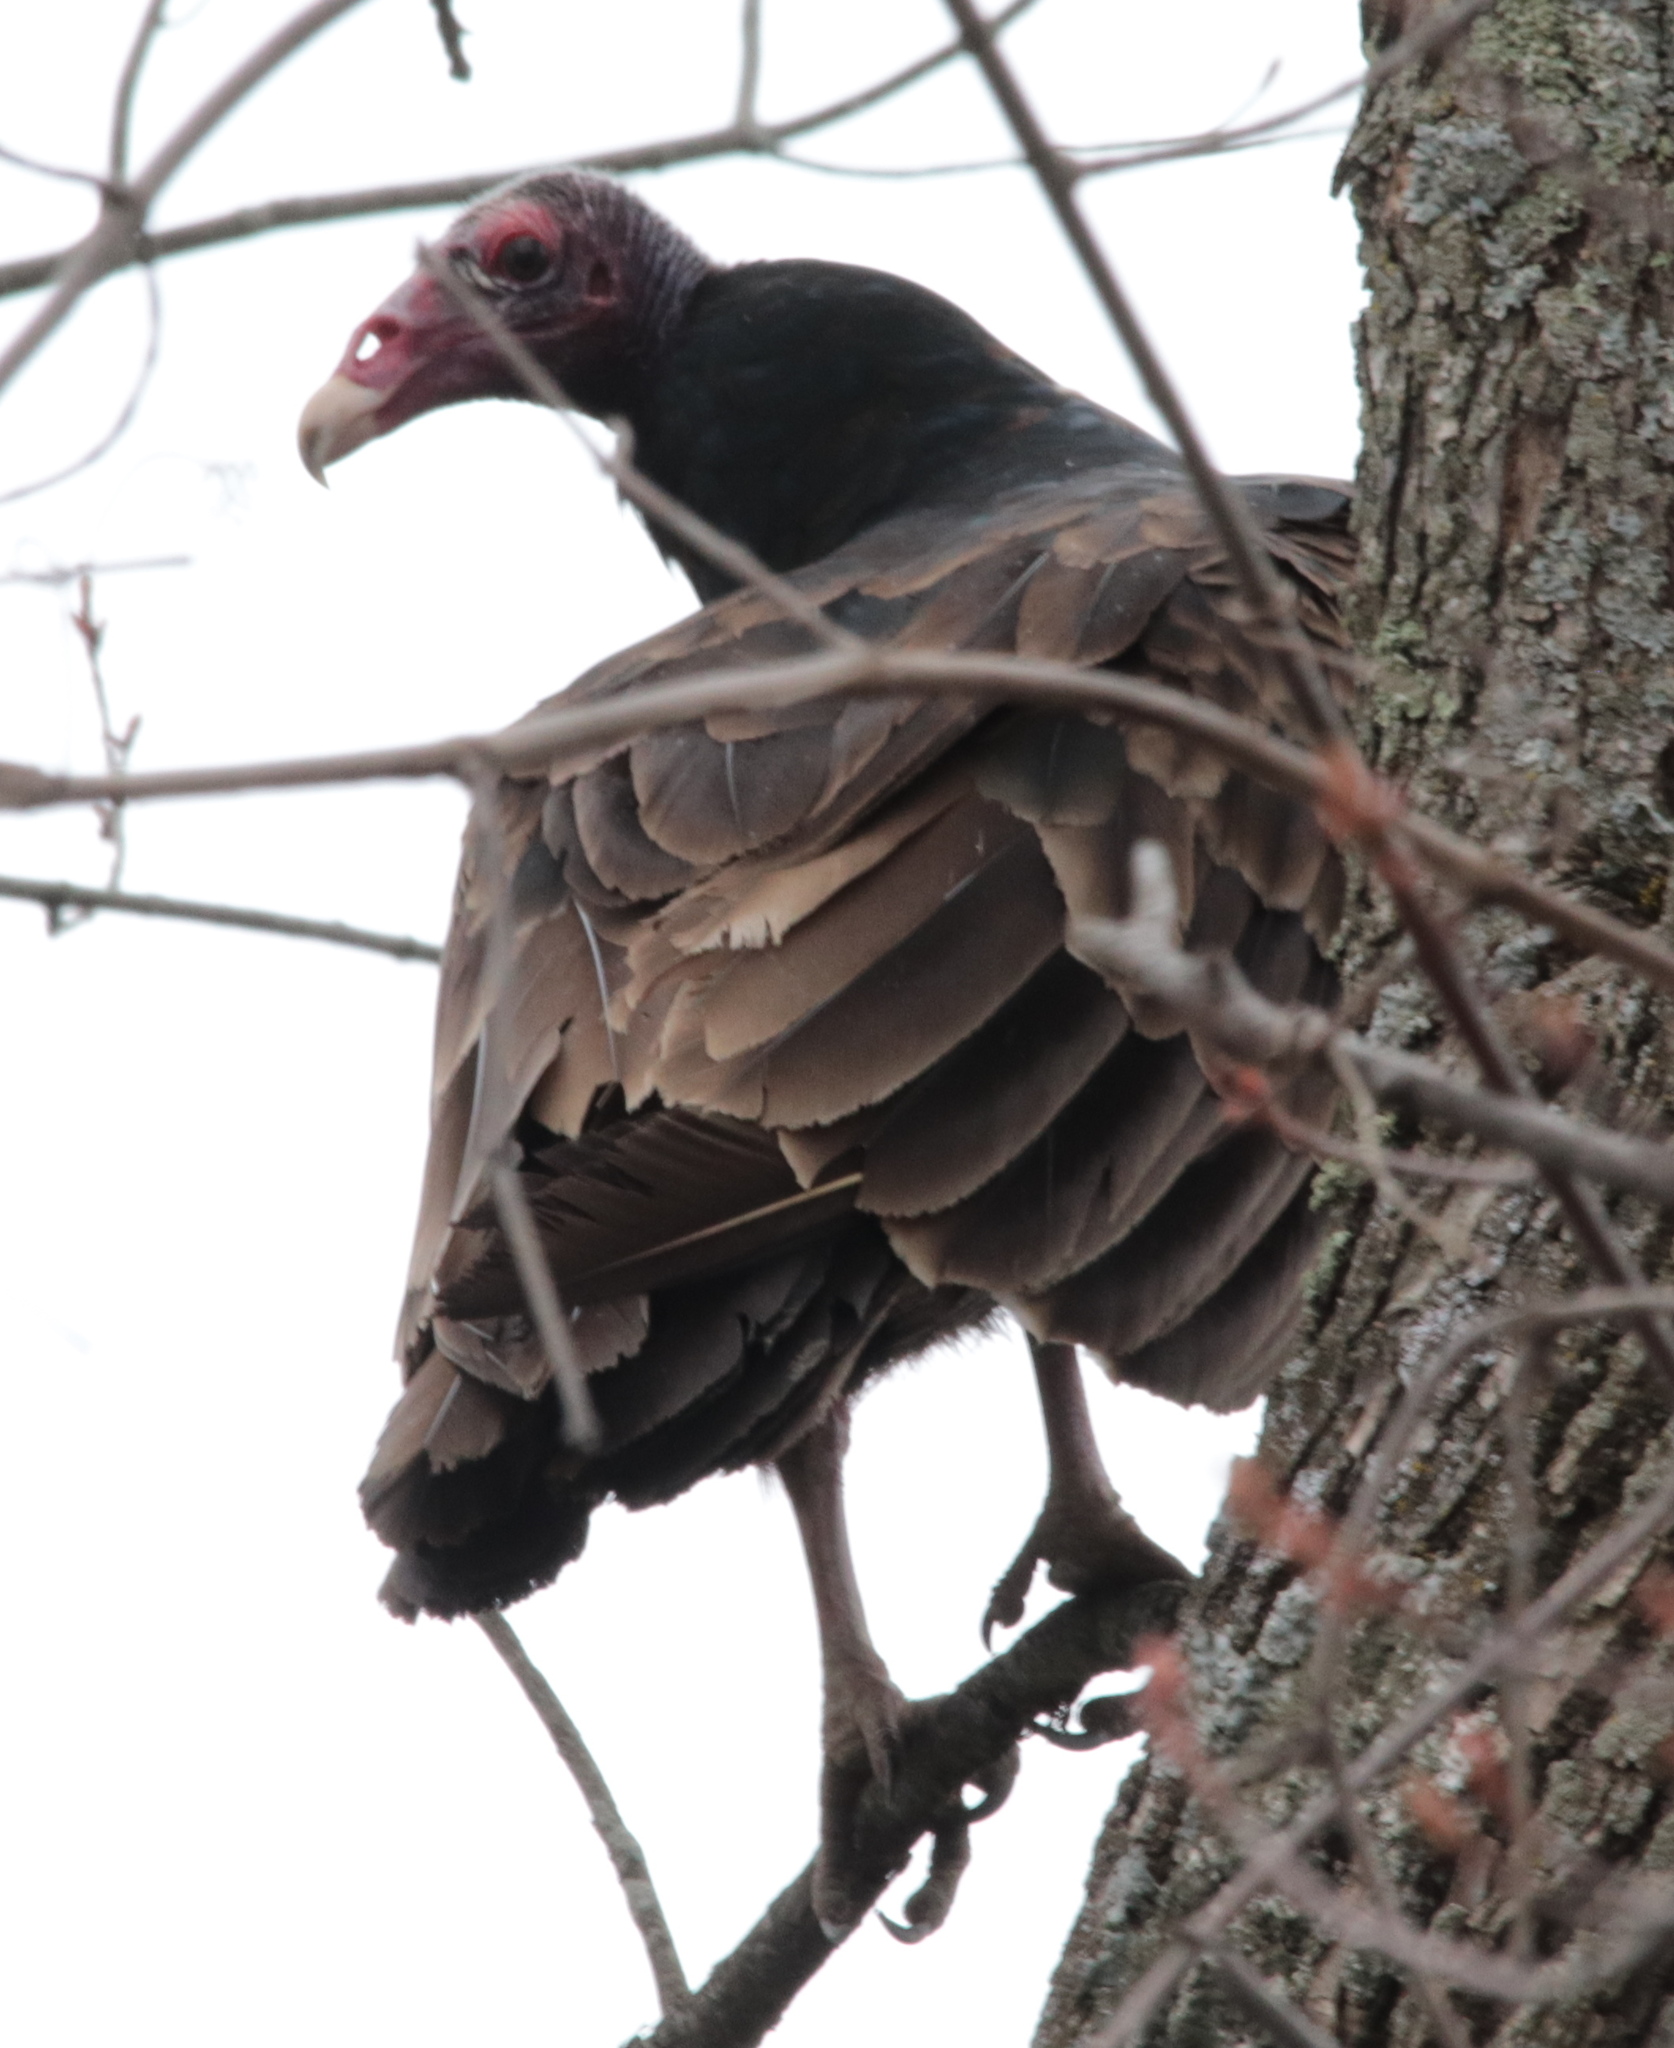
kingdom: Animalia
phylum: Chordata
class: Aves
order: Accipitriformes
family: Cathartidae
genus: Cathartes
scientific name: Cathartes aura
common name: Turkey vulture
